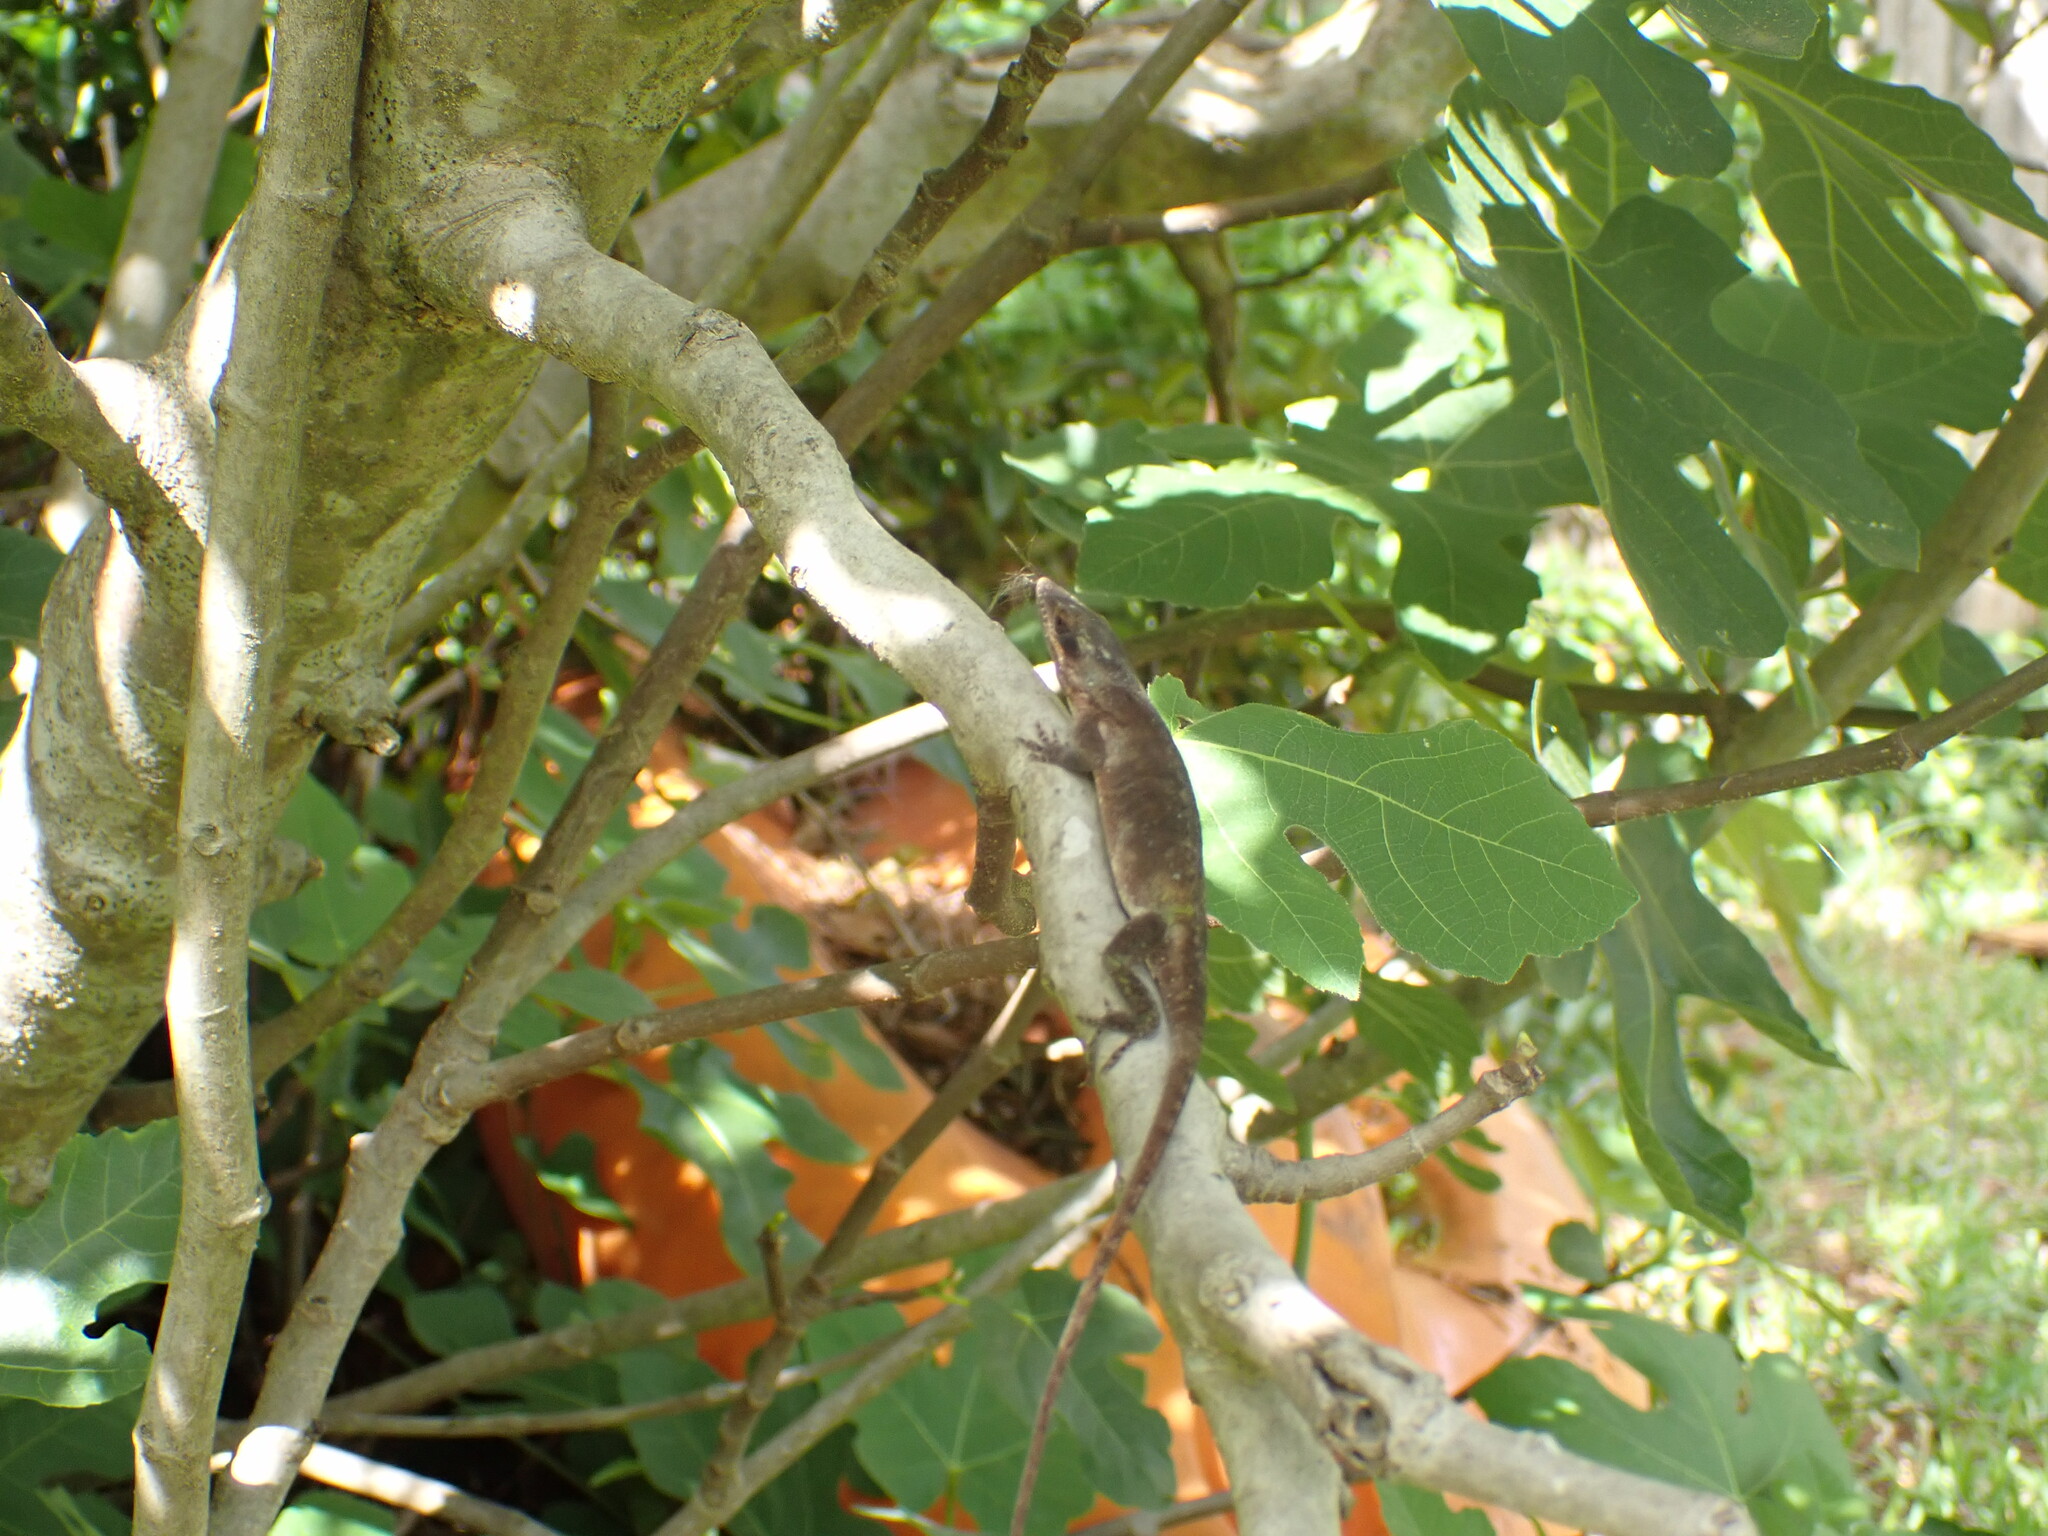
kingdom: Animalia
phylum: Chordata
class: Squamata
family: Dactyloidae
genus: Anolis
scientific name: Anolis carolinensis
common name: Green anole
